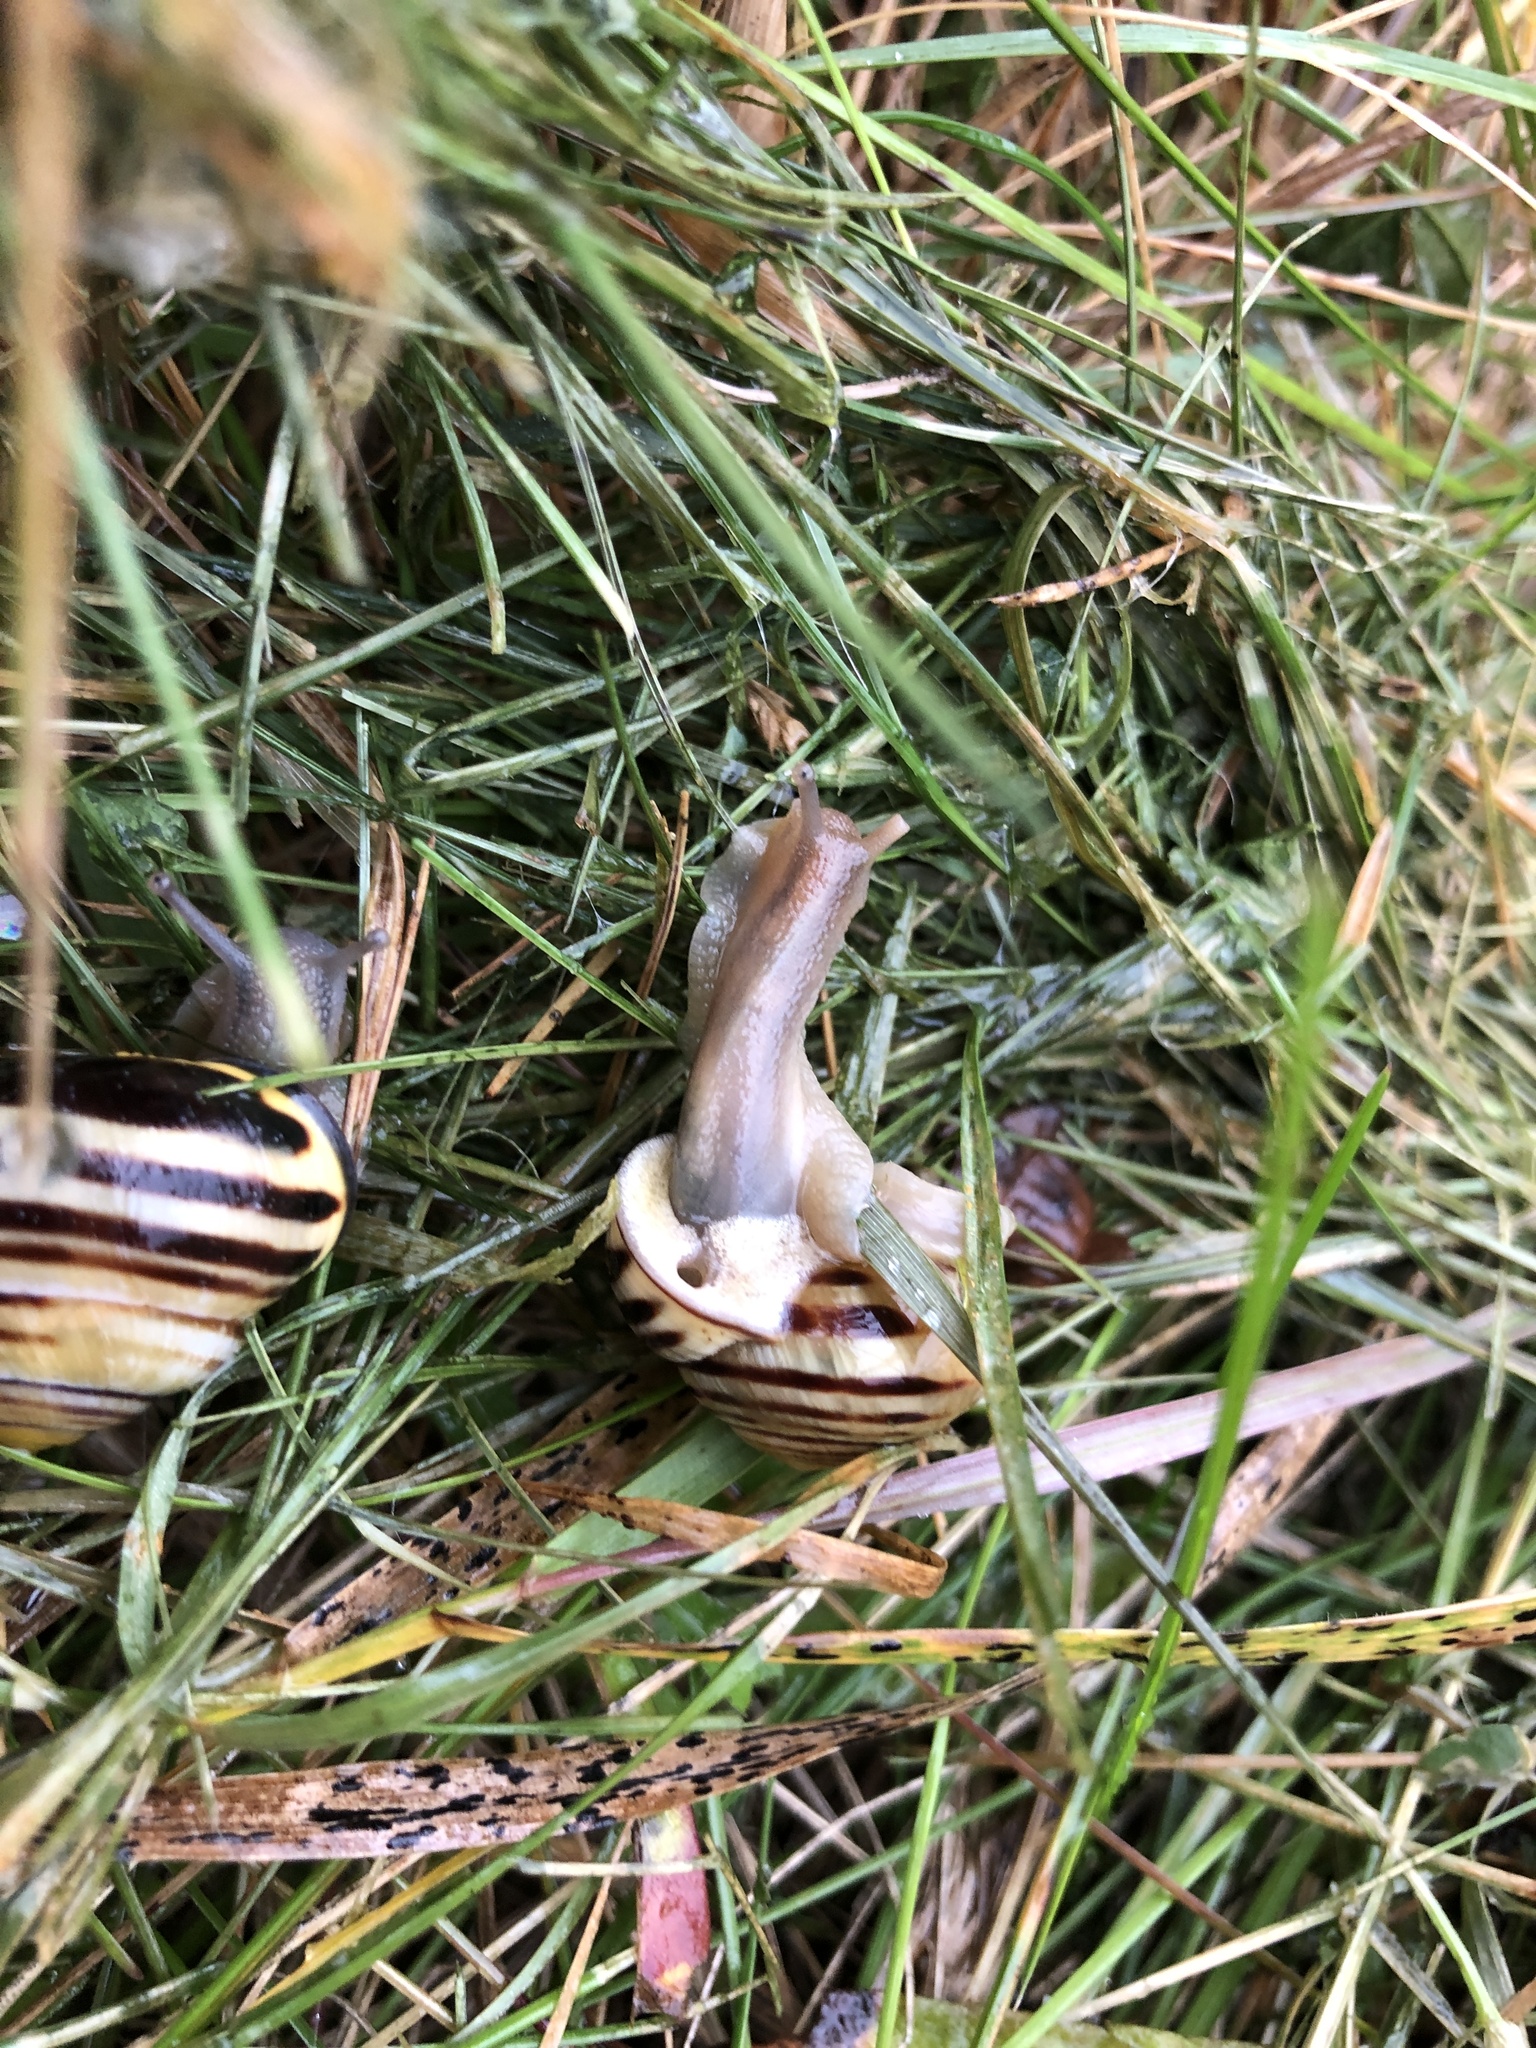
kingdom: Animalia
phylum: Mollusca
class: Gastropoda
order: Stylommatophora
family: Helicidae
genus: Cepaea
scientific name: Cepaea nemoralis
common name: Grovesnail
